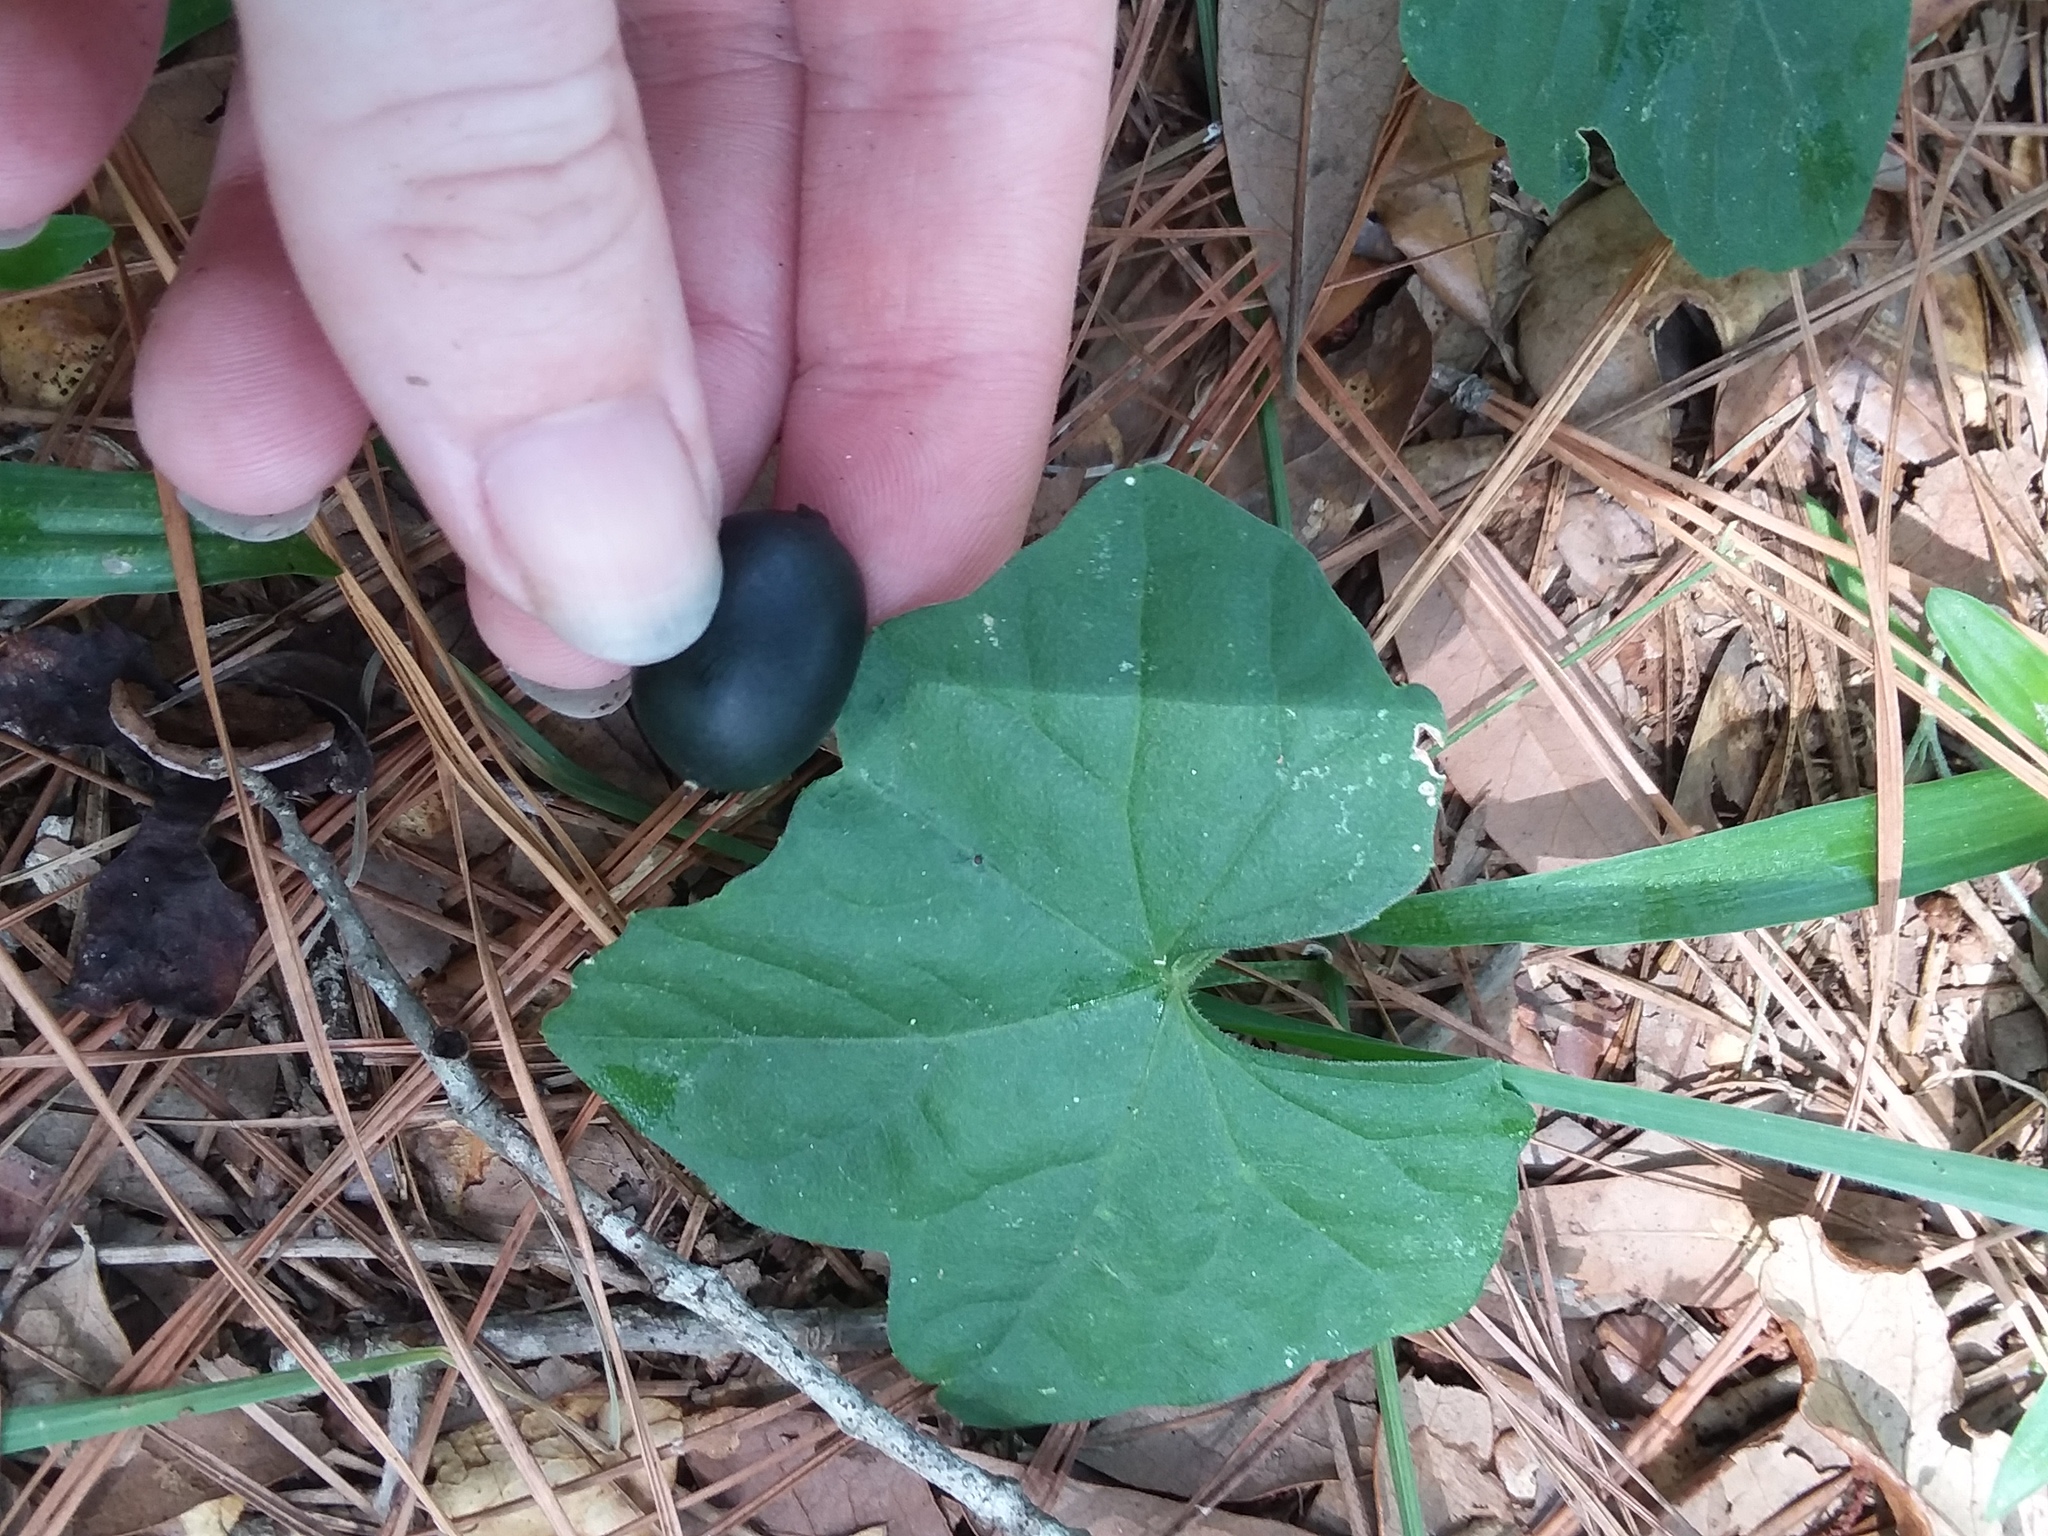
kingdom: Plantae
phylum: Tracheophyta
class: Magnoliopsida
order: Cucurbitales
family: Cucurbitaceae
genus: Melothria
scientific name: Melothria pendula
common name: Creeping-cucumber
